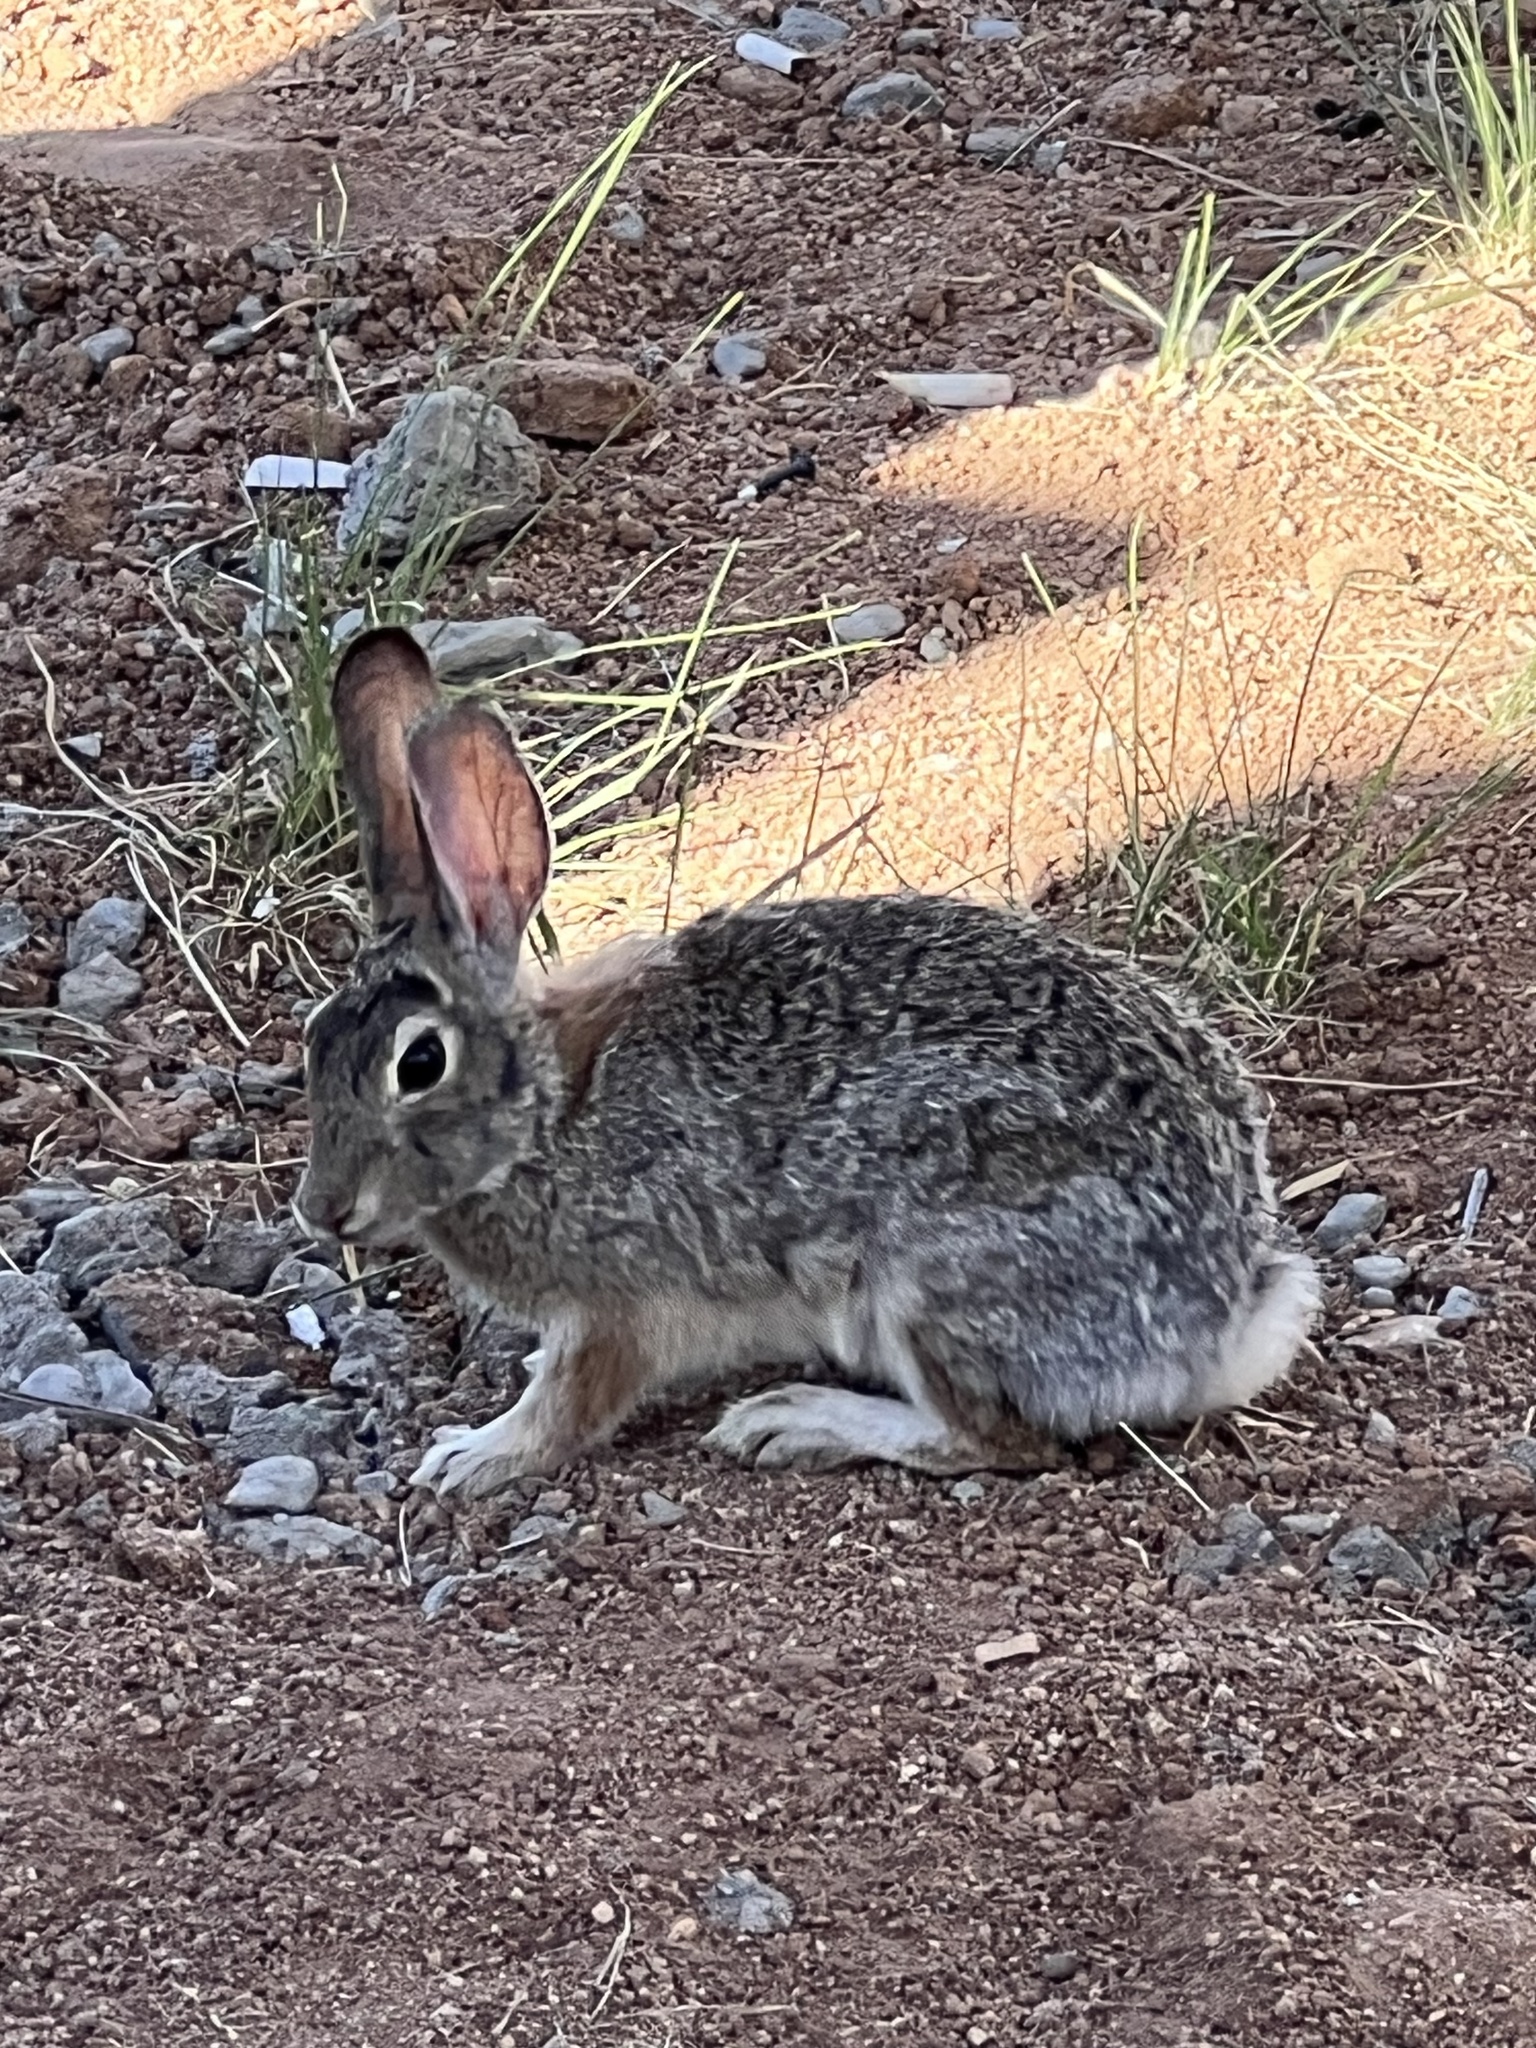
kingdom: Animalia
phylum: Chordata
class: Mammalia
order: Lagomorpha
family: Leporidae
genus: Sylvilagus
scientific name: Sylvilagus audubonii
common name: Desert cottontail
